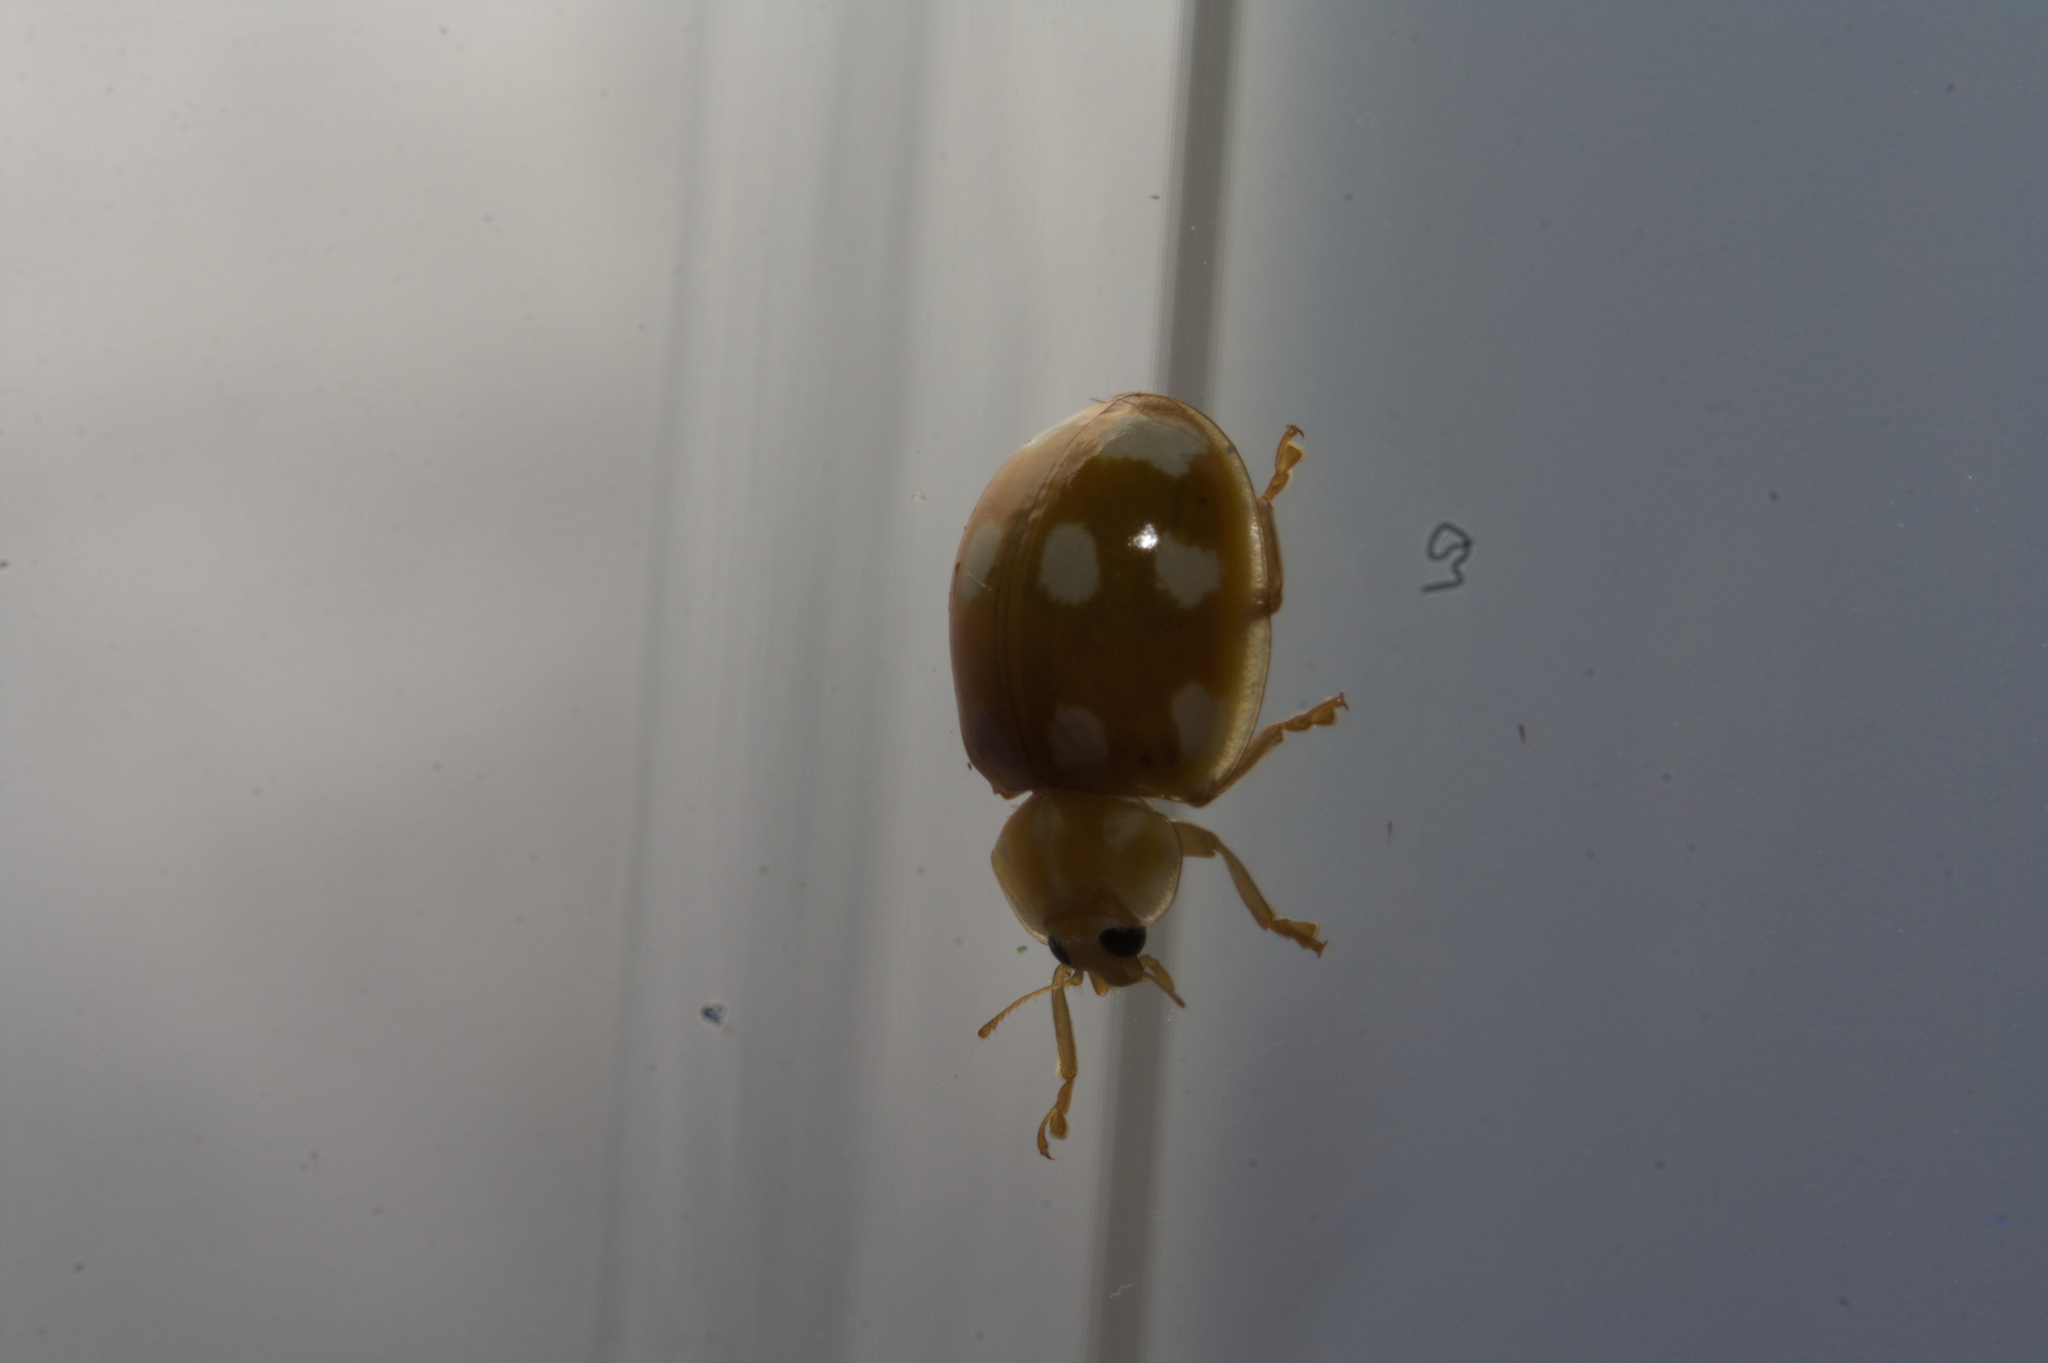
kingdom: Animalia
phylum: Arthropoda
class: Insecta
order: Coleoptera
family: Coccinellidae
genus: Calvia
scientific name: Calvia decemguttata
